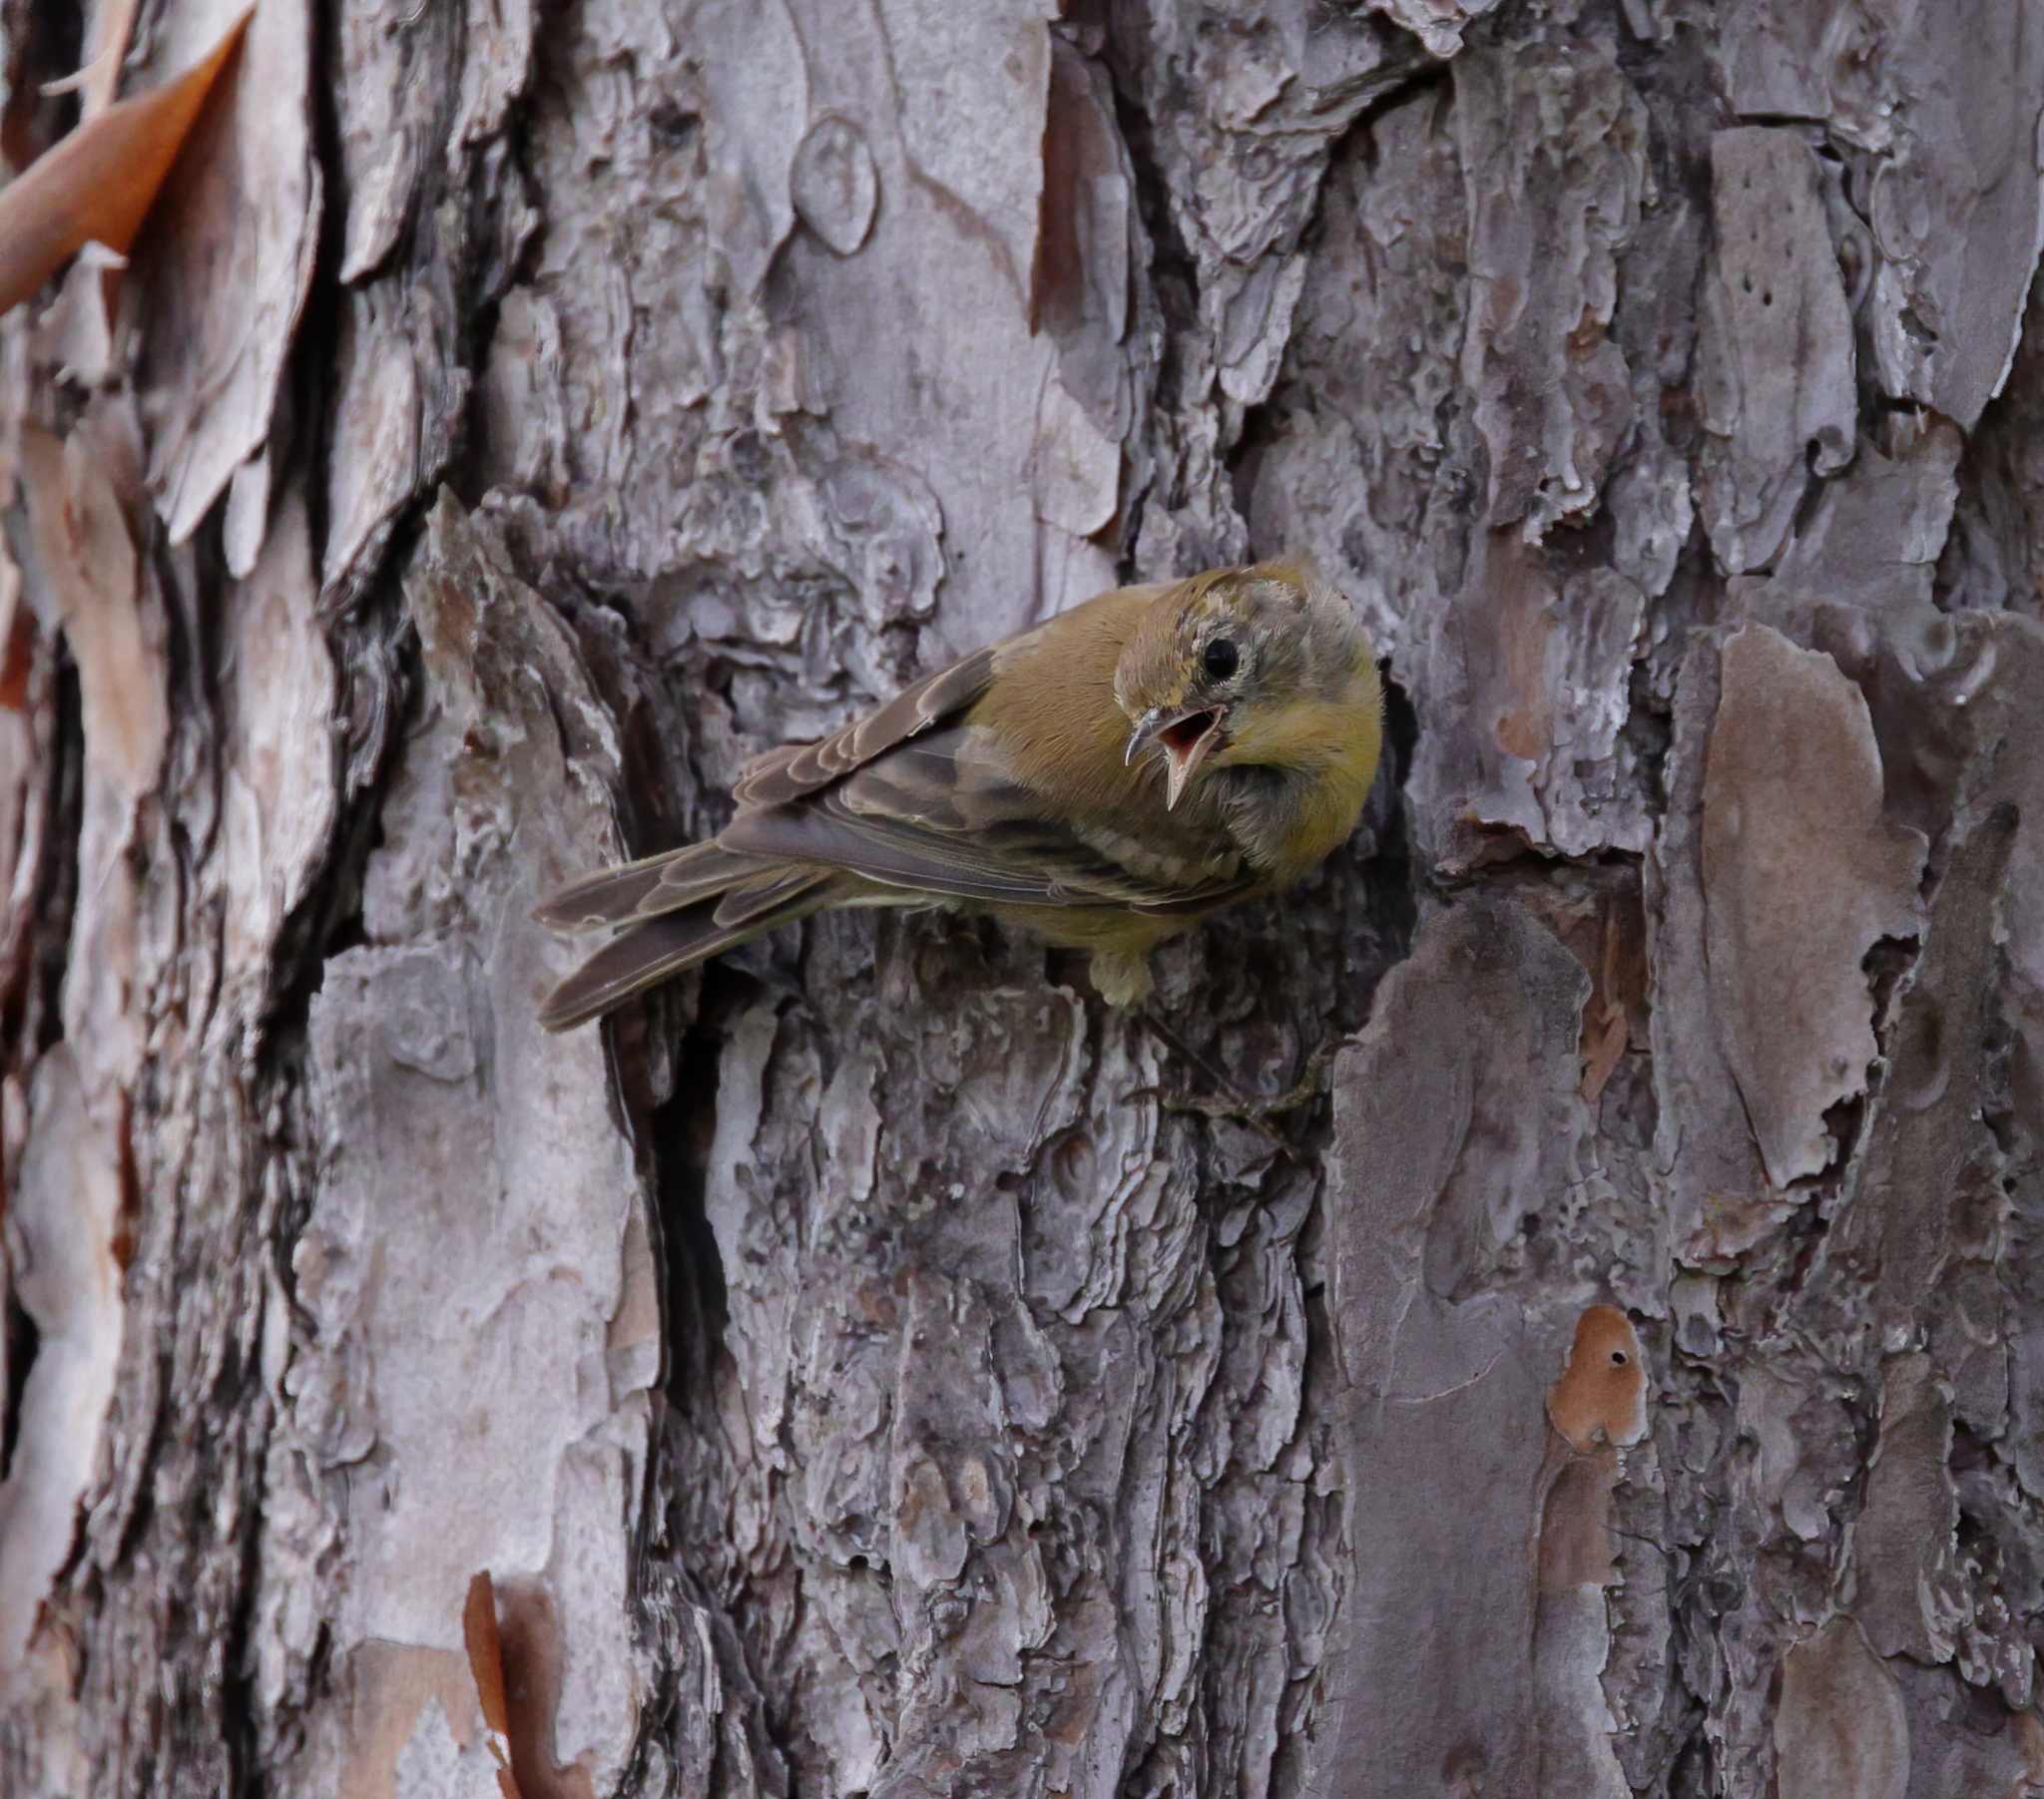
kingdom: Animalia
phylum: Chordata
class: Aves
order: Passeriformes
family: Parulidae
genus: Setophaga
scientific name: Setophaga pinus
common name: Pine warbler
